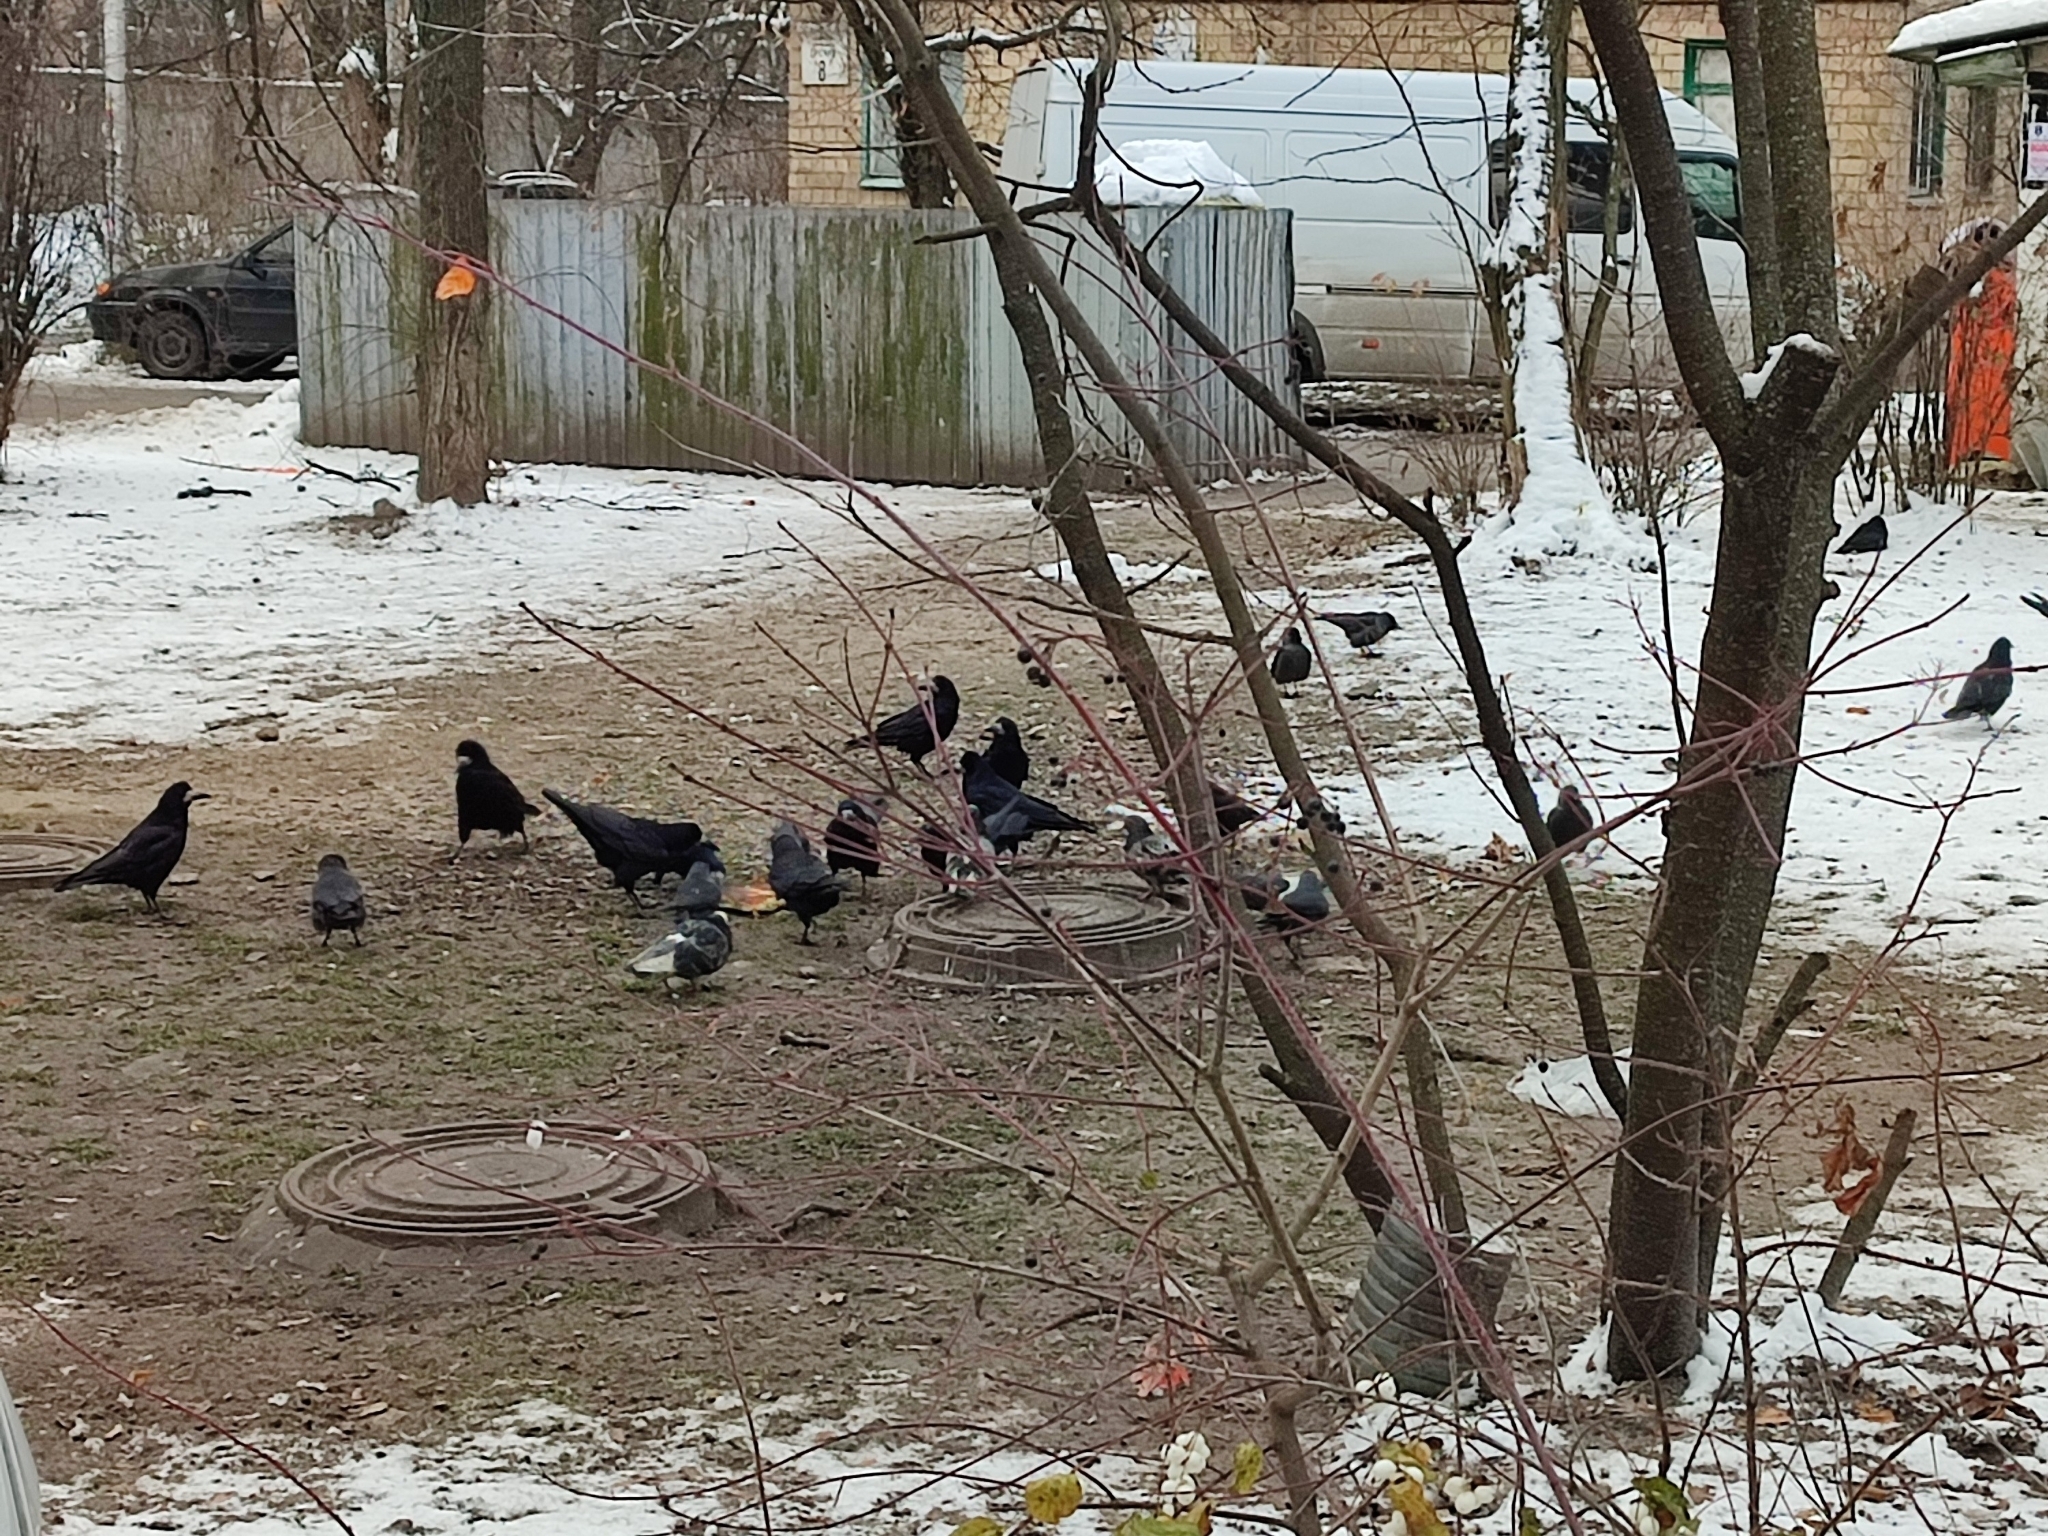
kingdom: Animalia
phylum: Chordata
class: Aves
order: Passeriformes
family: Corvidae
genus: Corvus
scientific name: Corvus frugilegus
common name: Rook
